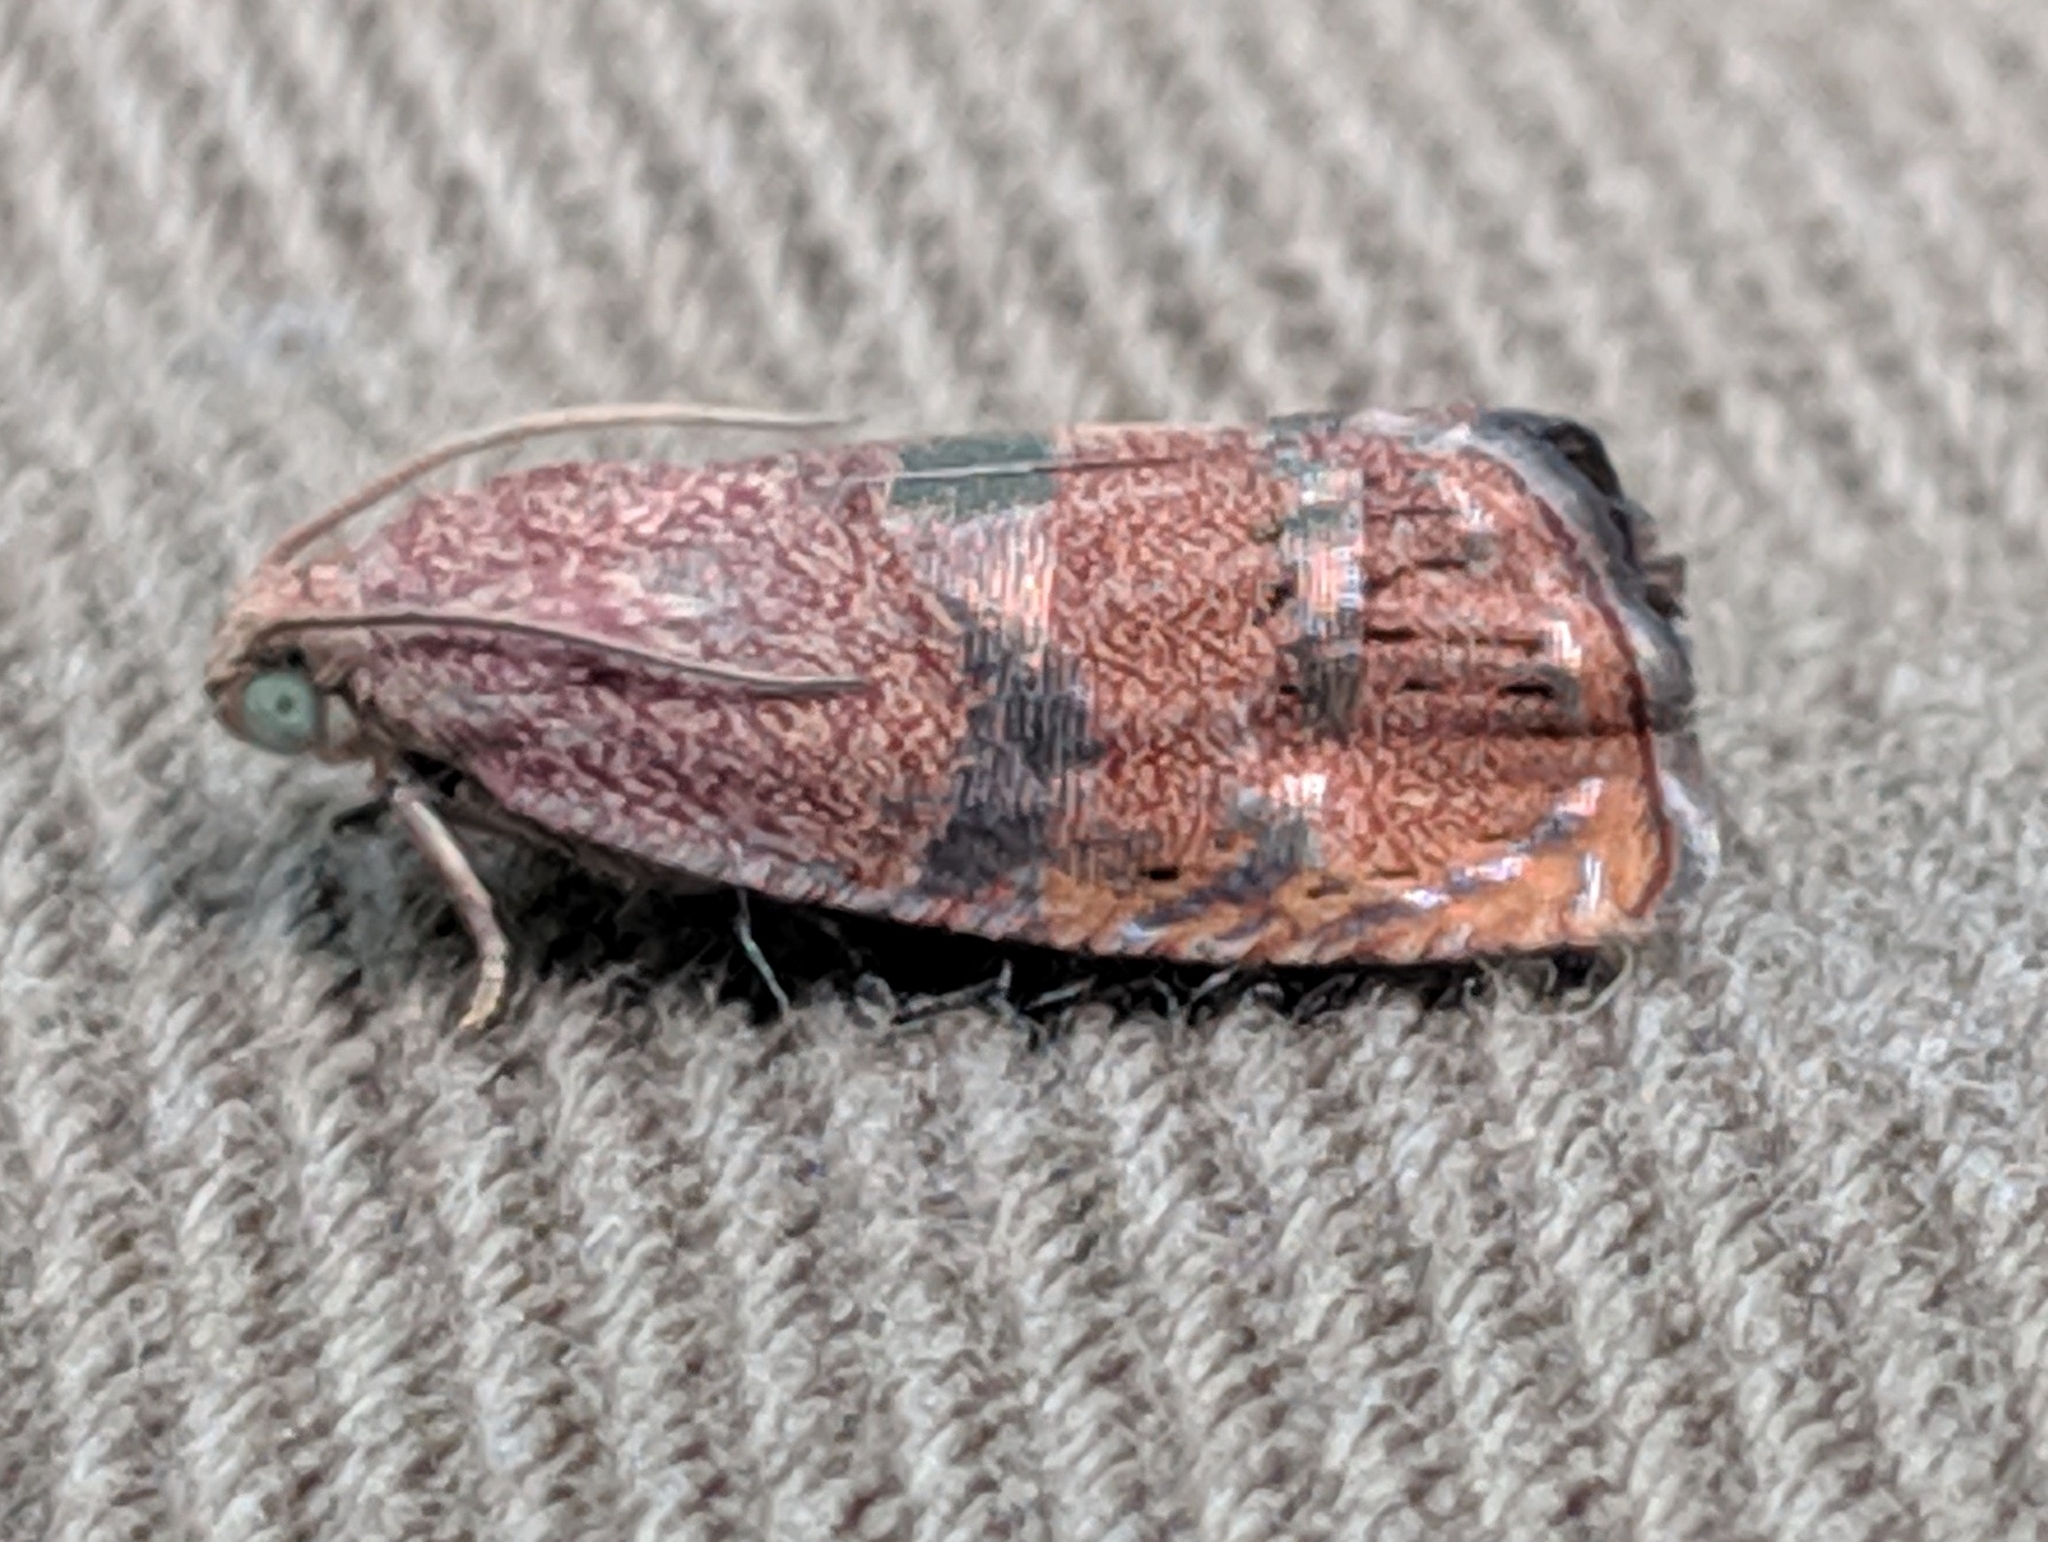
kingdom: Animalia
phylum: Arthropoda
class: Insecta
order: Lepidoptera
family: Tortricidae
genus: Cydia
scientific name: Cydia latiferreana
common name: Filbertworm moth
